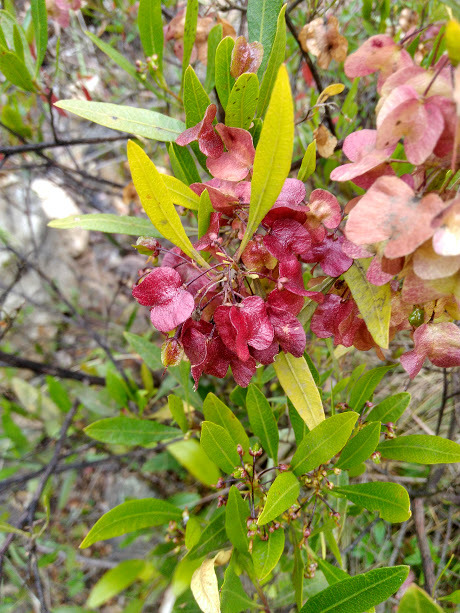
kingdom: Plantae
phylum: Tracheophyta
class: Magnoliopsida
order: Sapindales
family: Sapindaceae
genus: Dodonaea
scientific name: Dodonaea viscosa
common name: Hopbush
